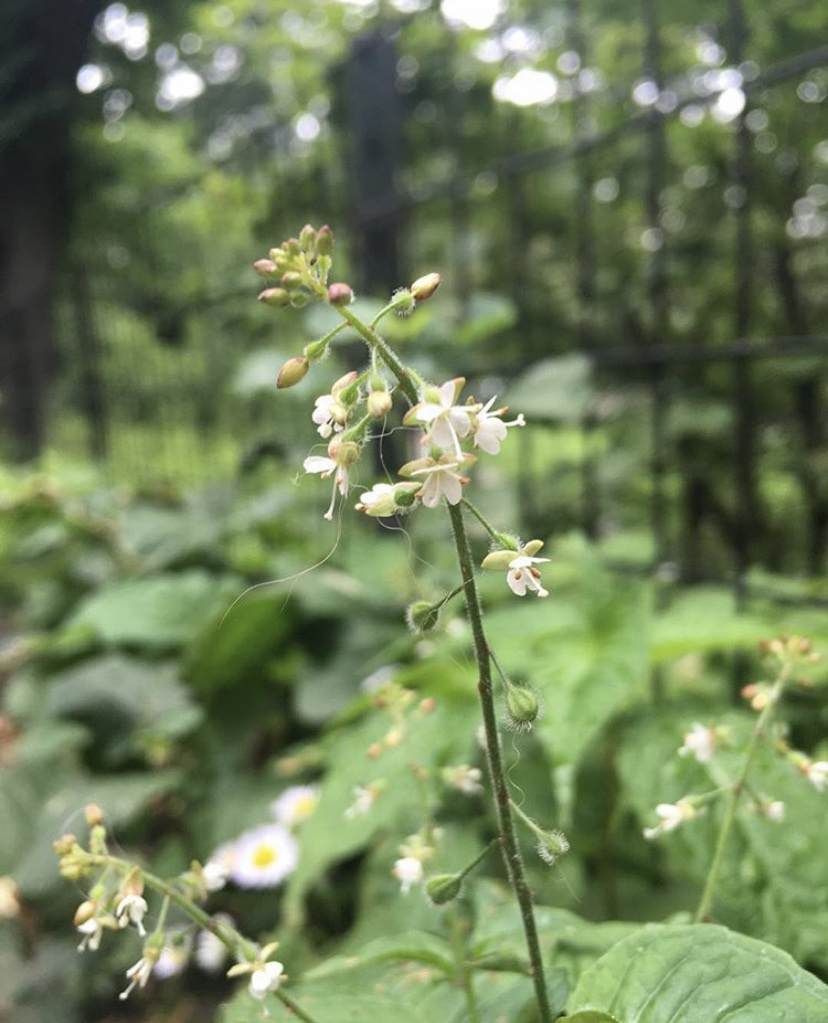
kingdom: Plantae
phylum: Tracheophyta
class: Magnoliopsida
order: Myrtales
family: Onagraceae
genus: Circaea
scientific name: Circaea canadensis
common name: Broad-leaved enchanter's nightshade
